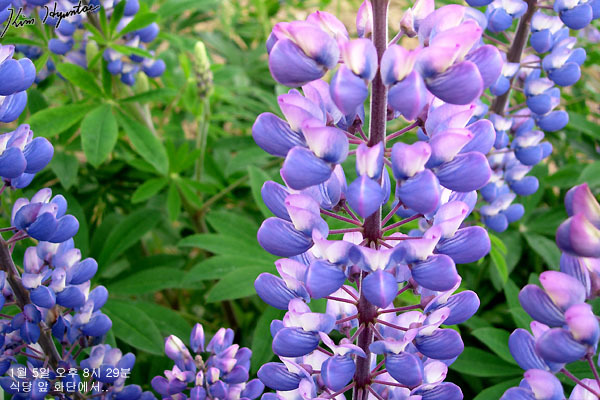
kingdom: Plantae
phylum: Tracheophyta
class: Magnoliopsida
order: Fabales
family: Fabaceae
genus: Lupinus
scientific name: Lupinus polyphyllus
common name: Garden lupin
